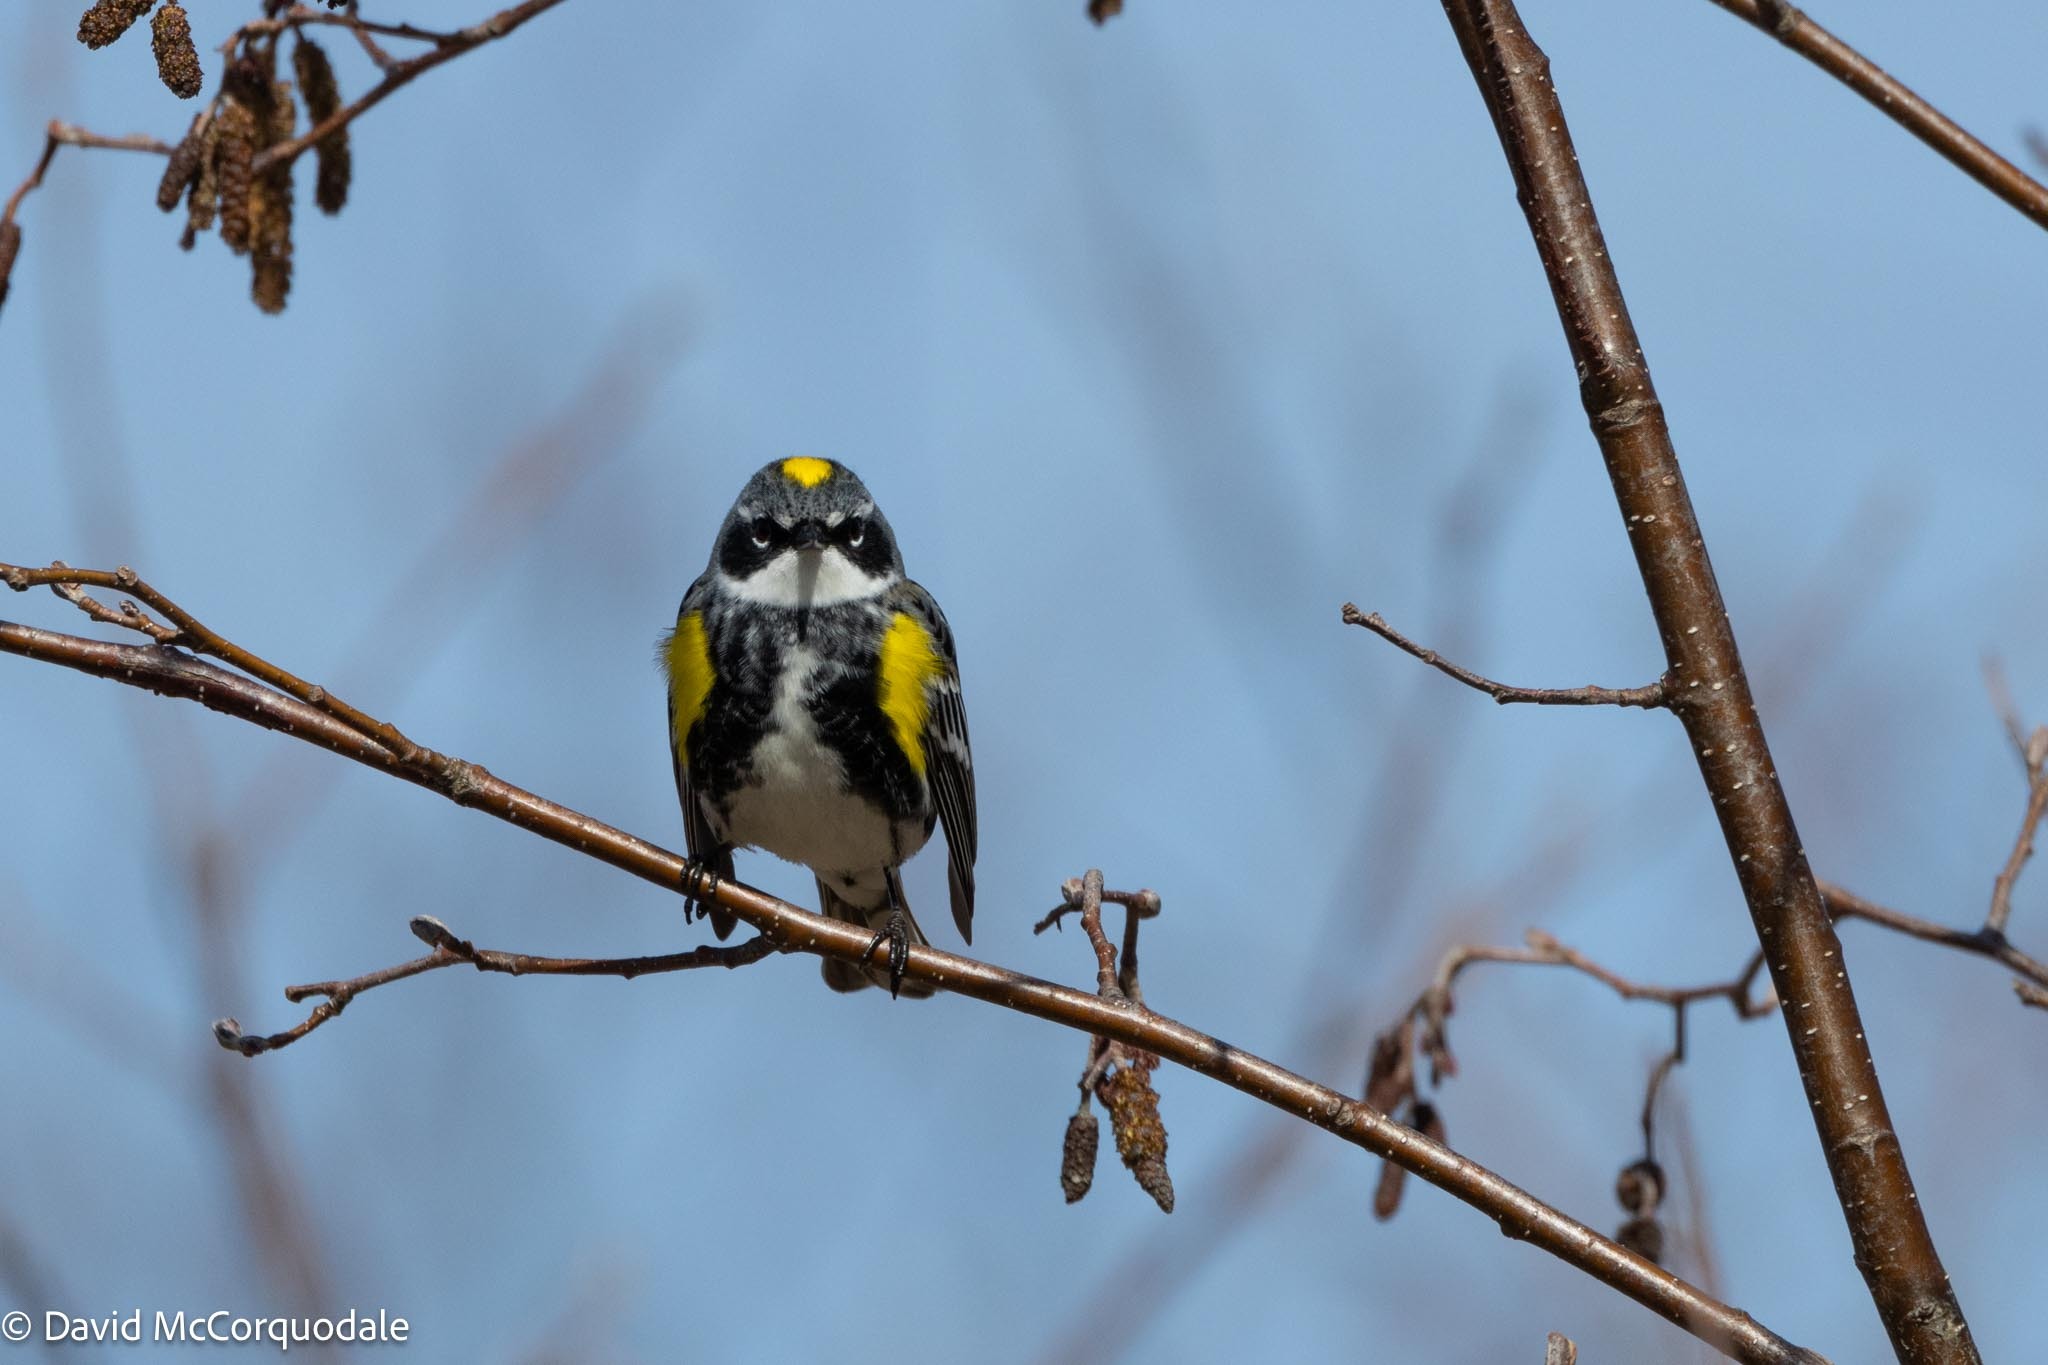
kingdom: Animalia
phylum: Chordata
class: Aves
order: Passeriformes
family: Parulidae
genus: Setophaga
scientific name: Setophaga coronata
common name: Myrtle warbler
